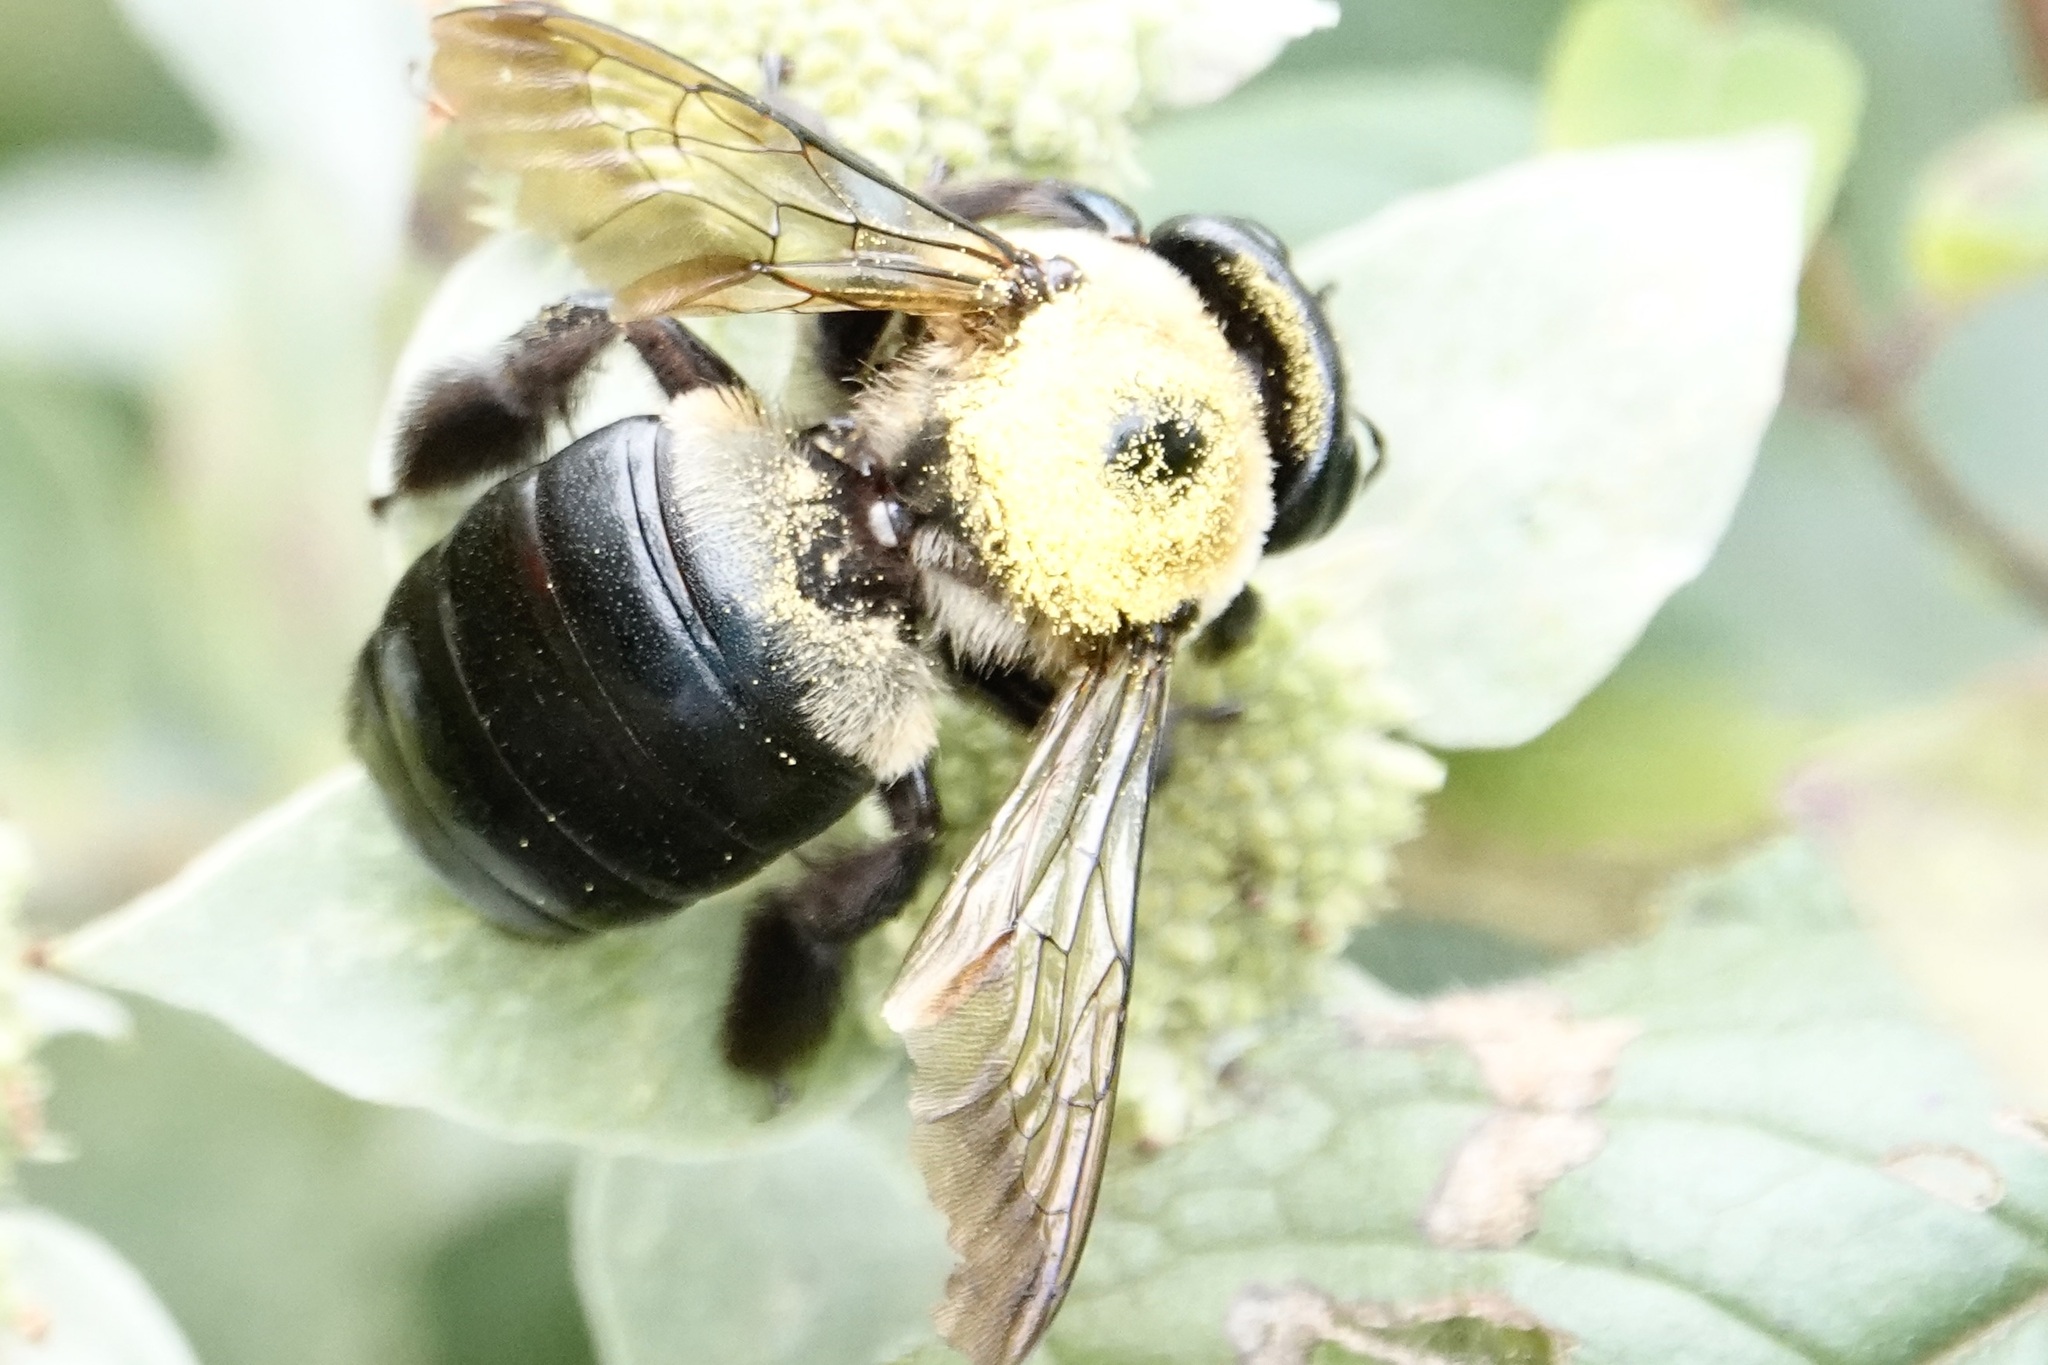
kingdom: Animalia
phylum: Arthropoda
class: Insecta
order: Hymenoptera
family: Apidae
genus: Xylocopa
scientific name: Xylocopa virginica
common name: Carpenter bee
